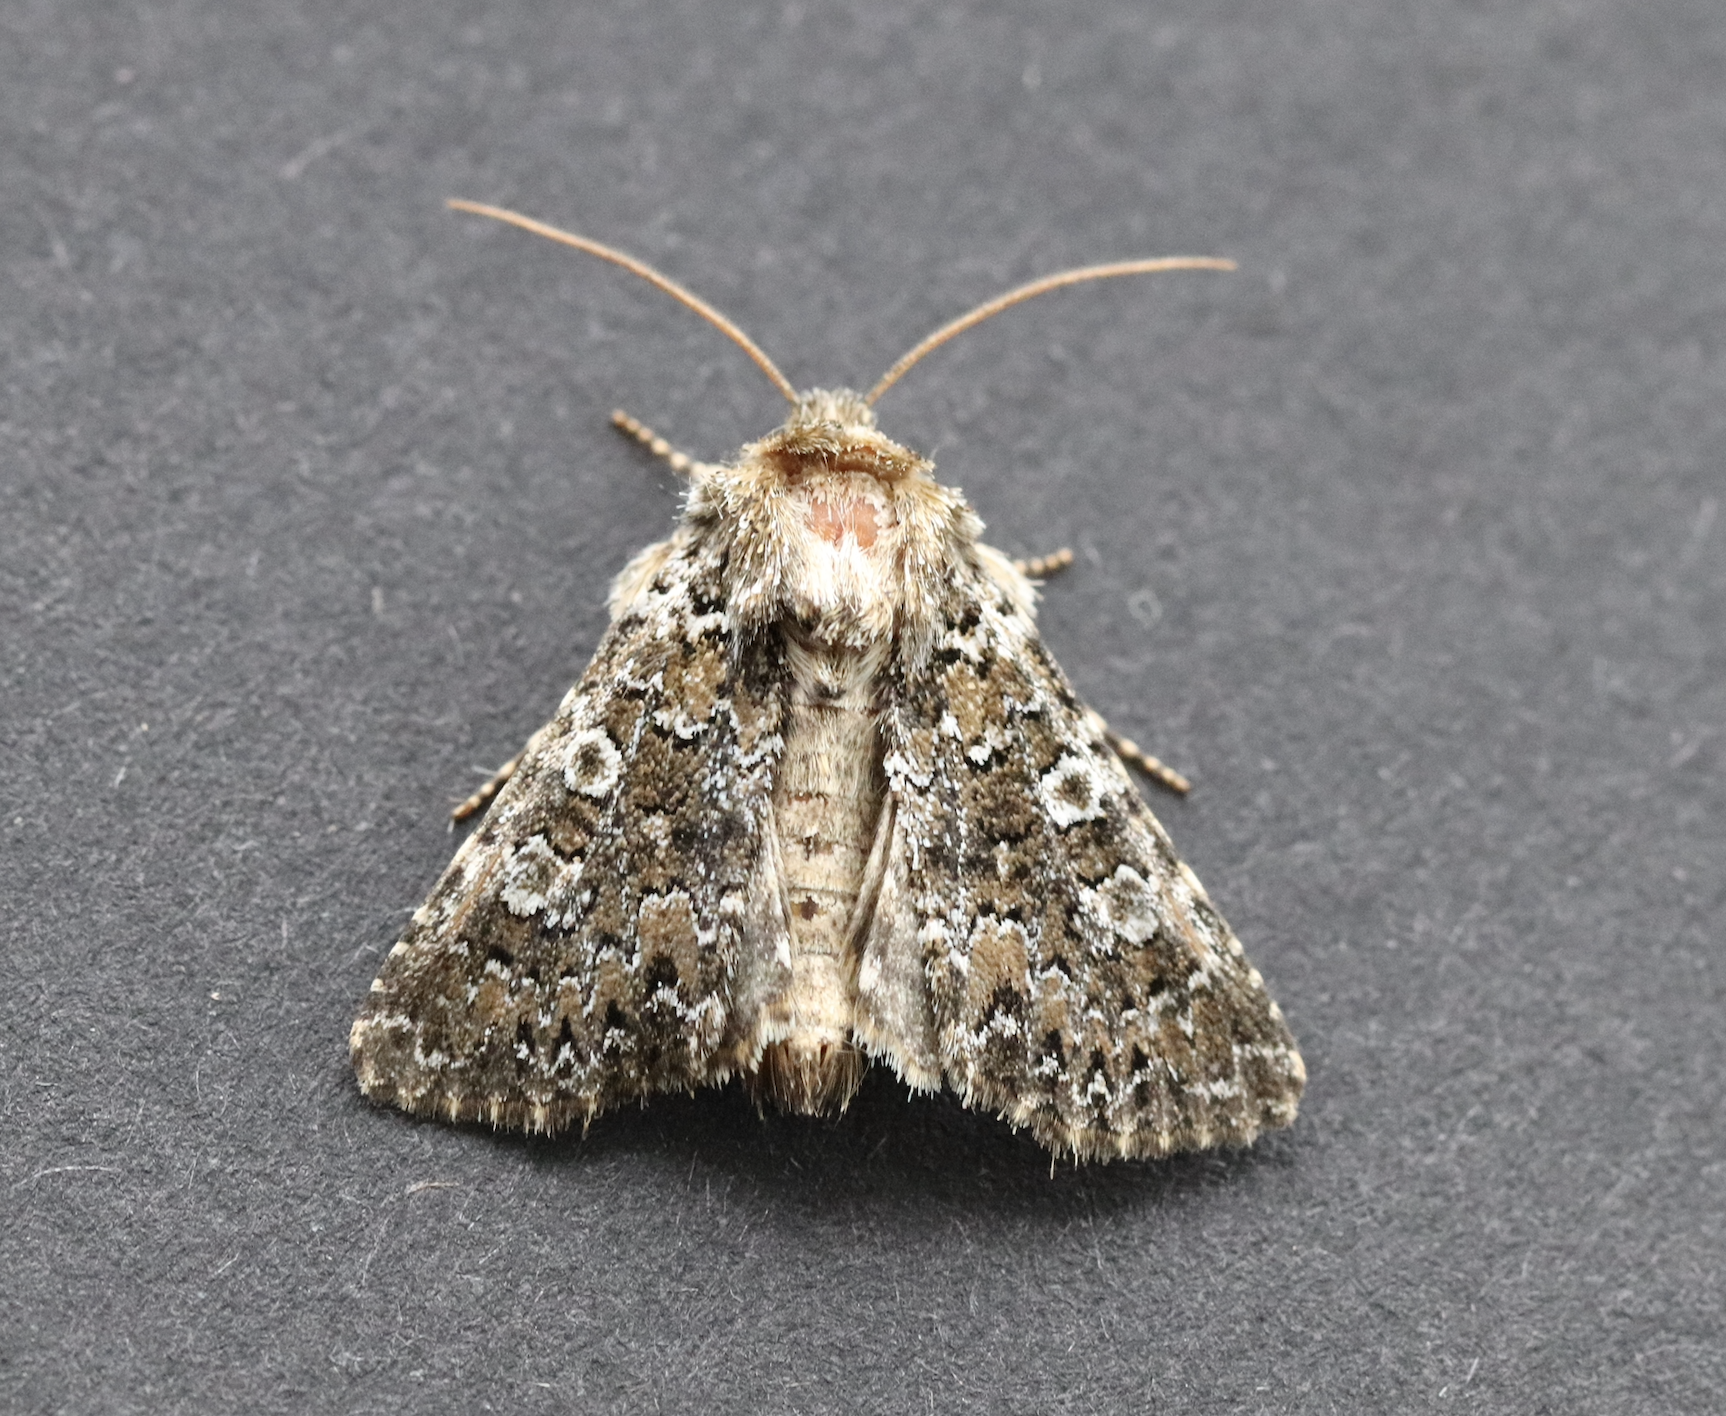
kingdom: Animalia
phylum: Arthropoda
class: Insecta
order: Lepidoptera
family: Noctuidae
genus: Hadena
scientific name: Hadena magnolii
